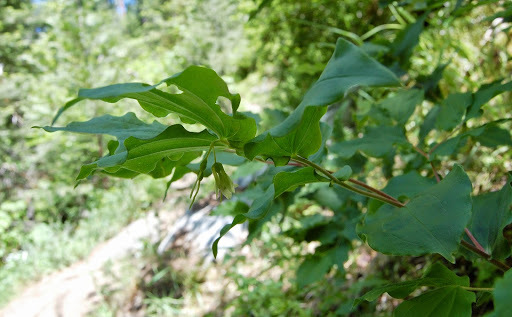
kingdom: Plantae
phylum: Tracheophyta
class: Liliopsida
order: Liliales
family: Liliaceae
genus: Prosartes
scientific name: Prosartes hookeri
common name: Fairy-bells
